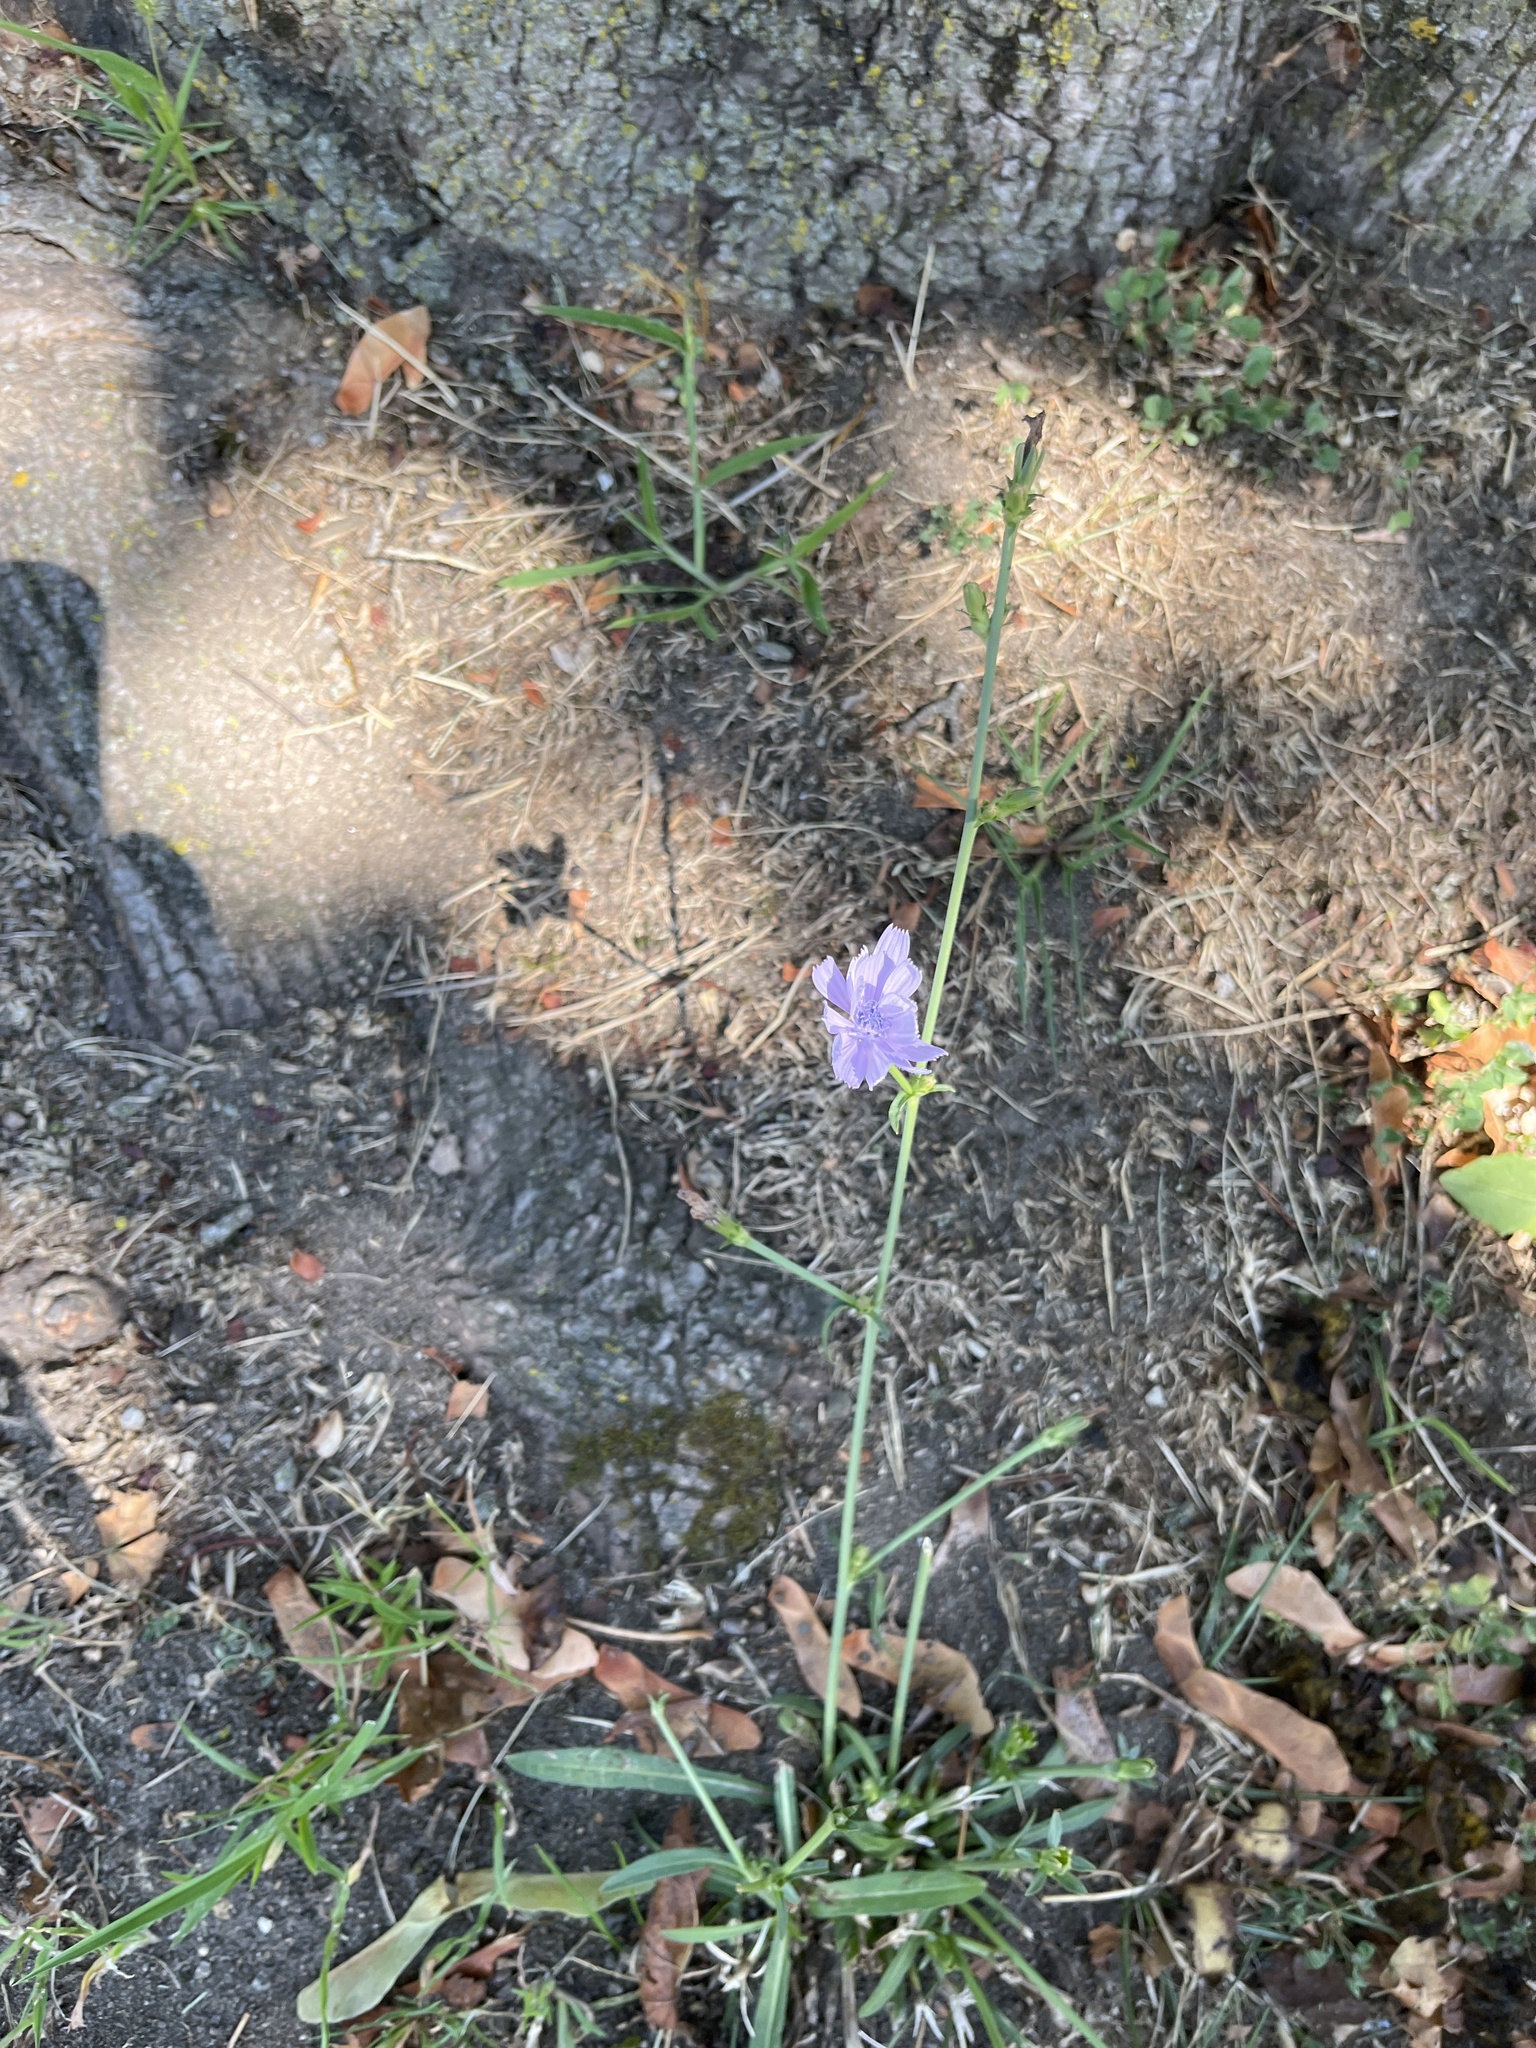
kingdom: Plantae
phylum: Tracheophyta
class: Magnoliopsida
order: Asterales
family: Asteraceae
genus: Cichorium
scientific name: Cichorium intybus
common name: Chicory
